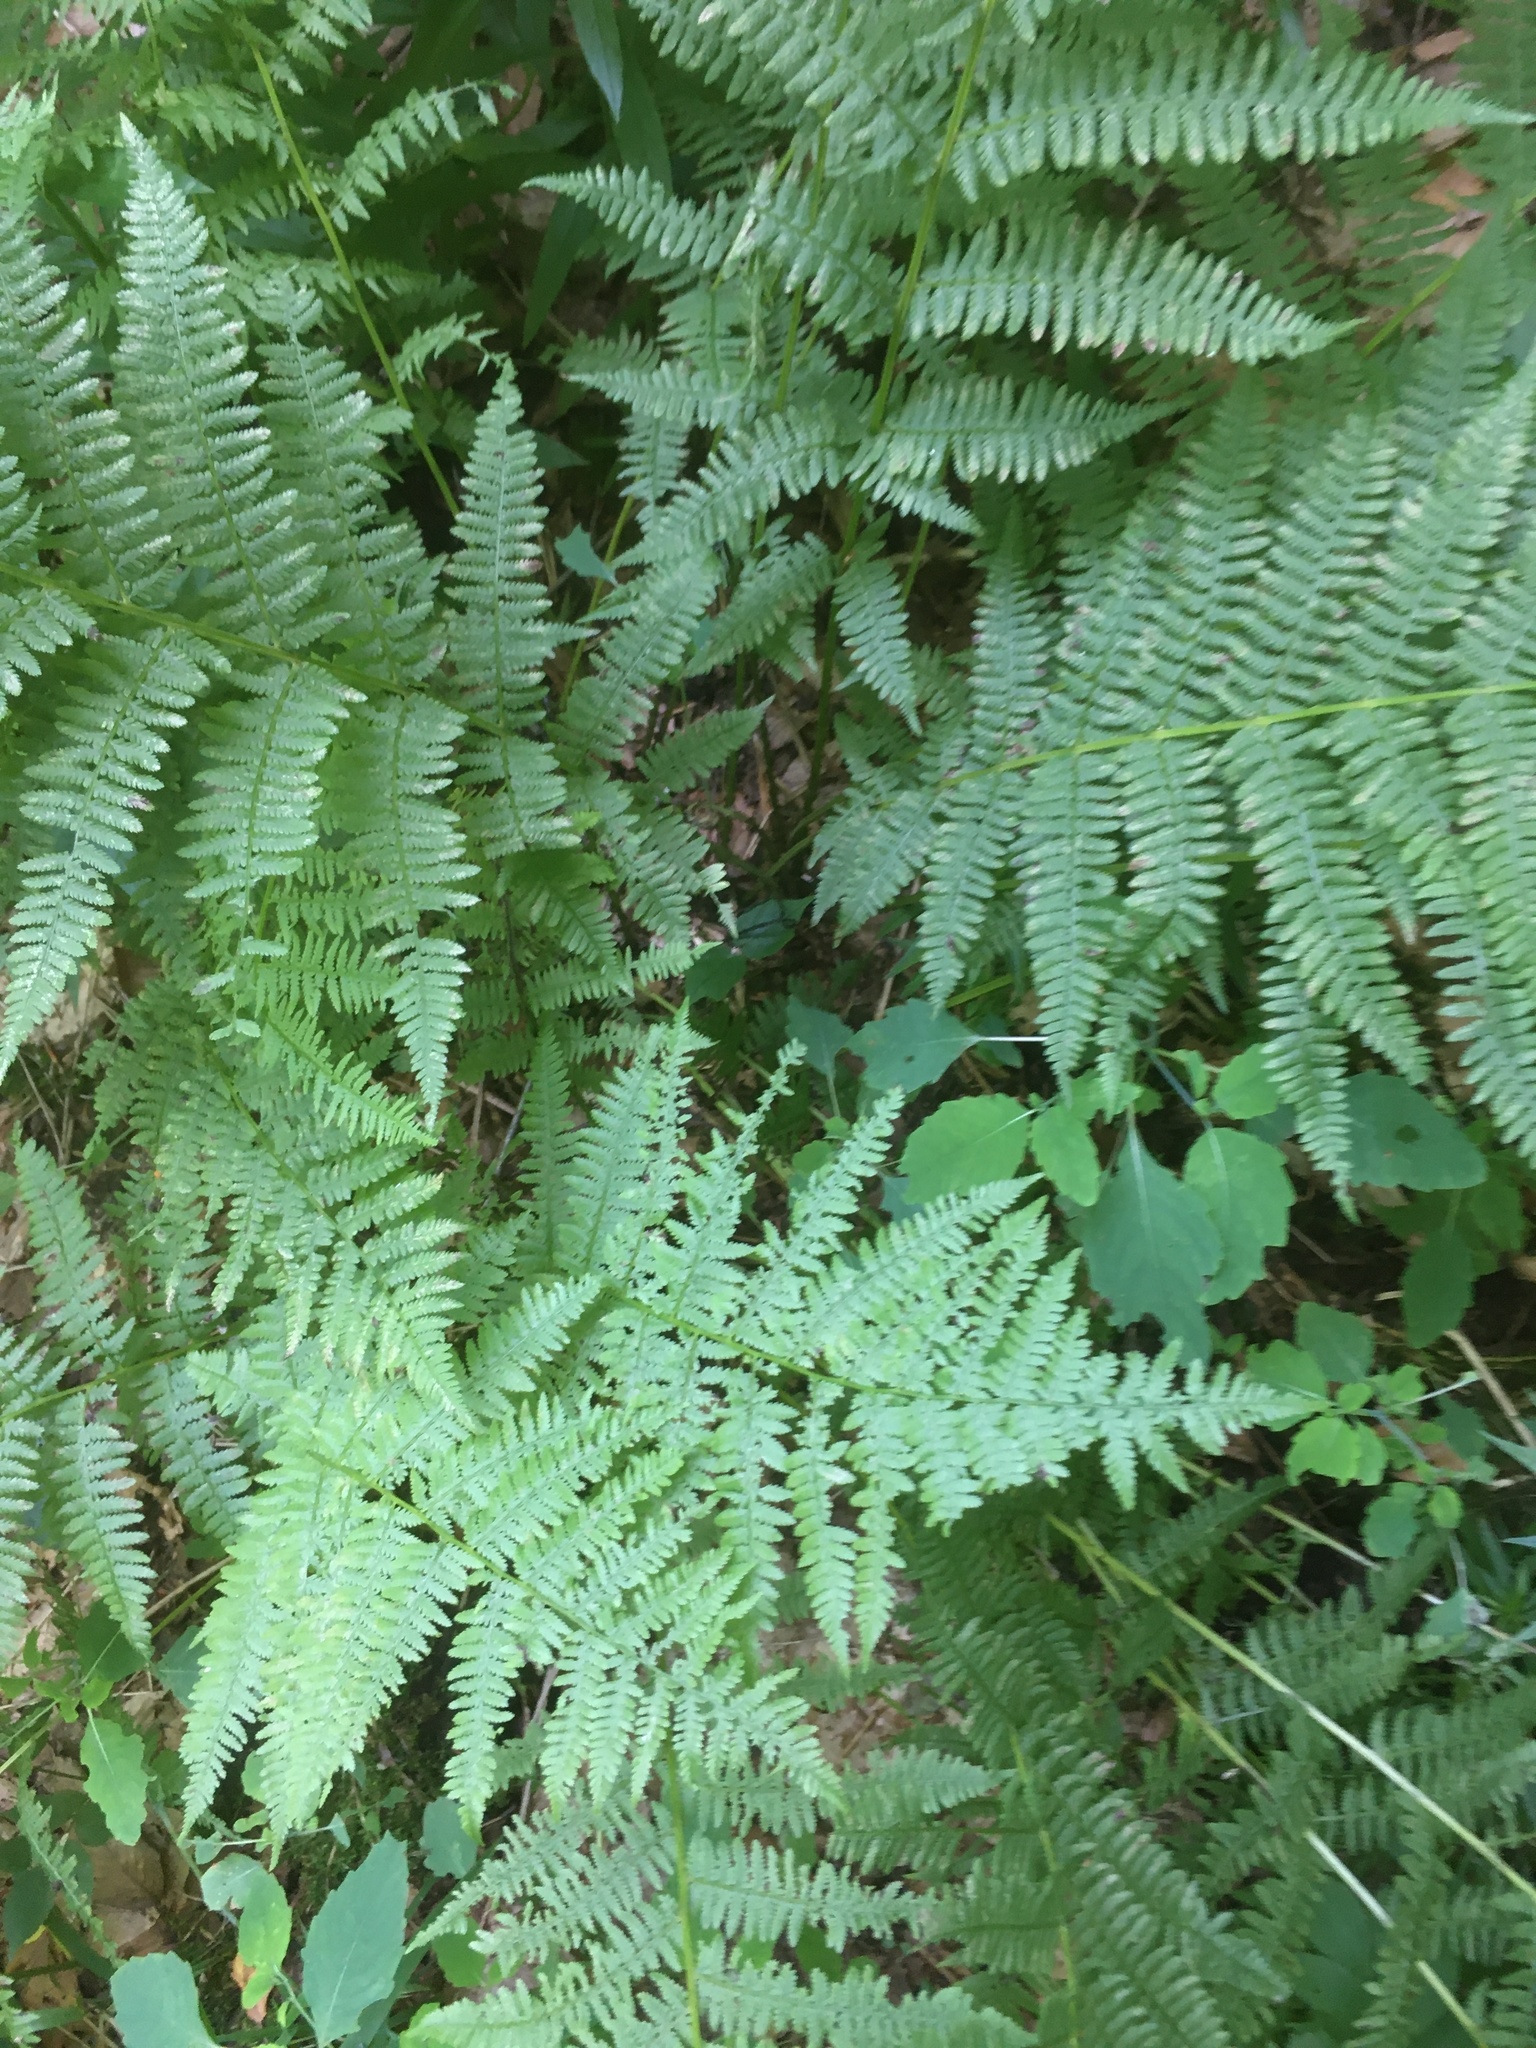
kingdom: Plantae
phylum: Tracheophyta
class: Polypodiopsida
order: Polypodiales
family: Athyriaceae
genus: Athyrium
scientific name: Athyrium angustum
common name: Northern lady fern
